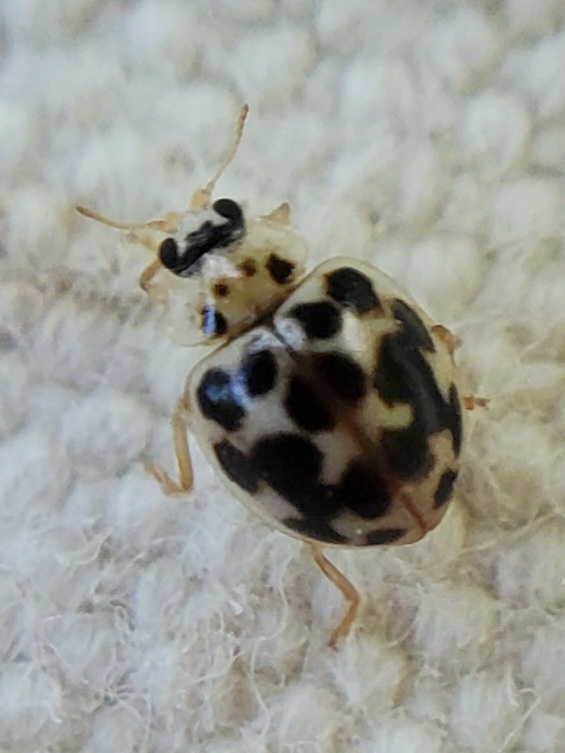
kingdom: Animalia
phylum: Arthropoda
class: Insecta
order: Coleoptera
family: Coccinellidae
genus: Psyllobora
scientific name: Psyllobora vigintimaculata
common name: Ladybird beetle
